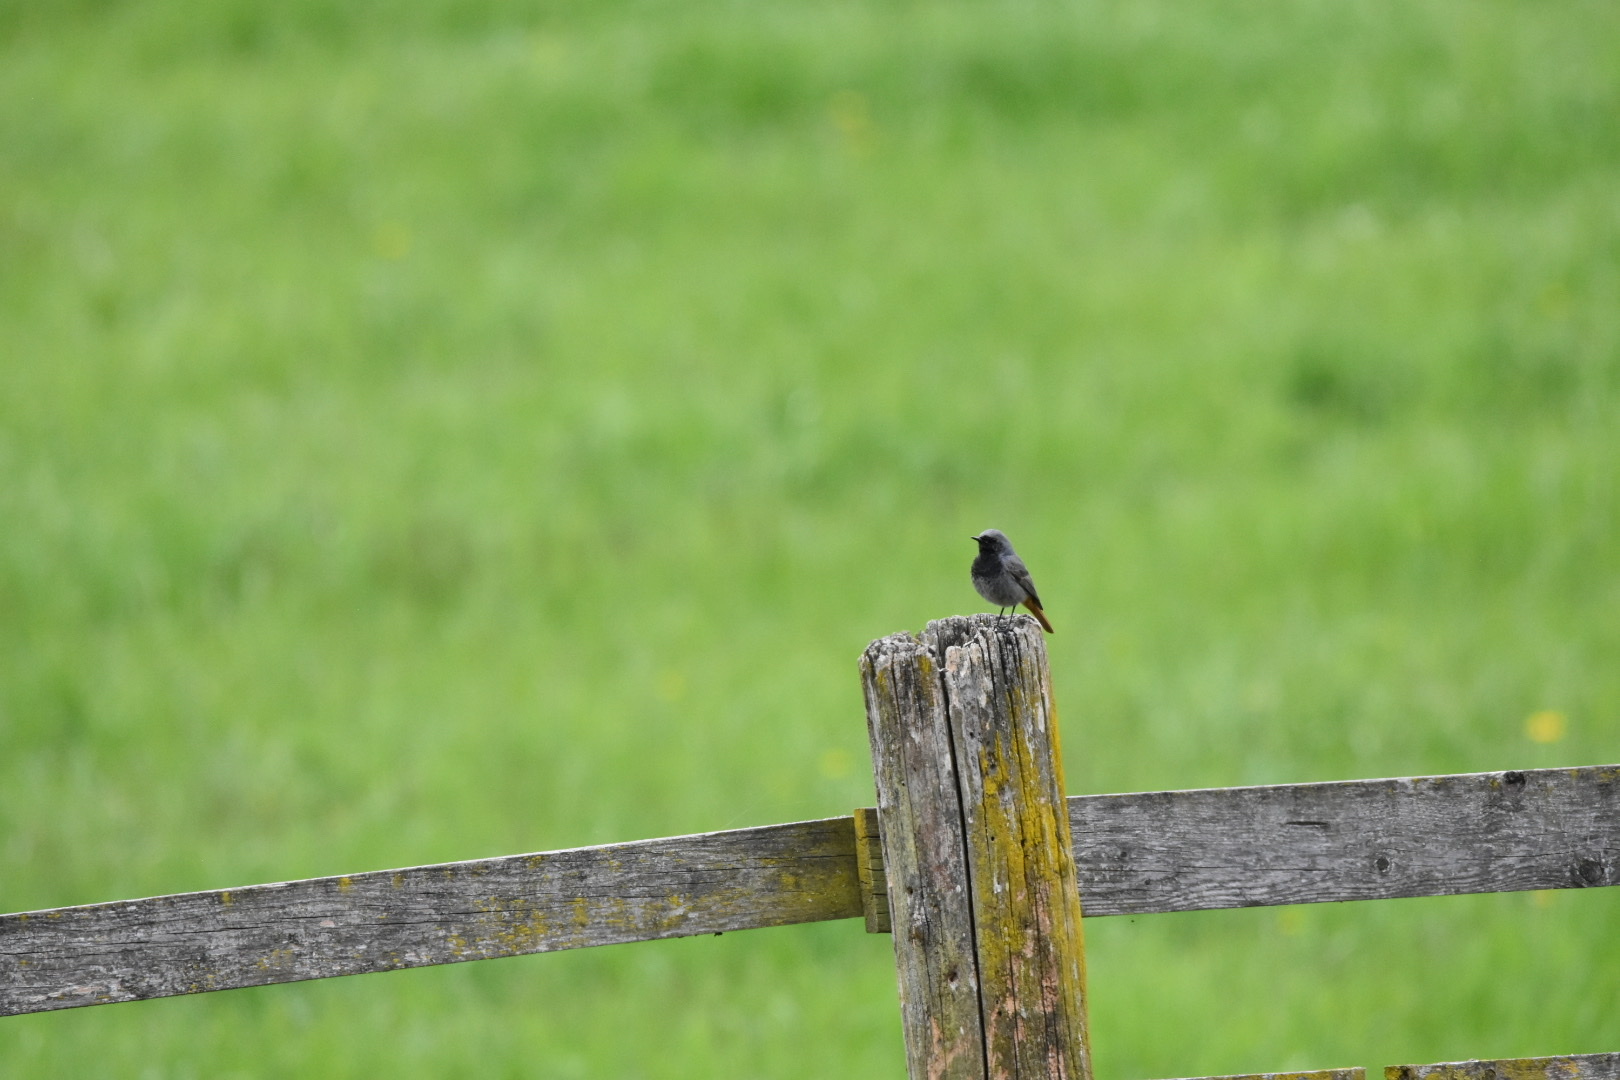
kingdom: Animalia
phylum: Chordata
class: Aves
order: Passeriformes
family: Muscicapidae
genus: Phoenicurus
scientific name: Phoenicurus ochruros
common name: Black redstart
